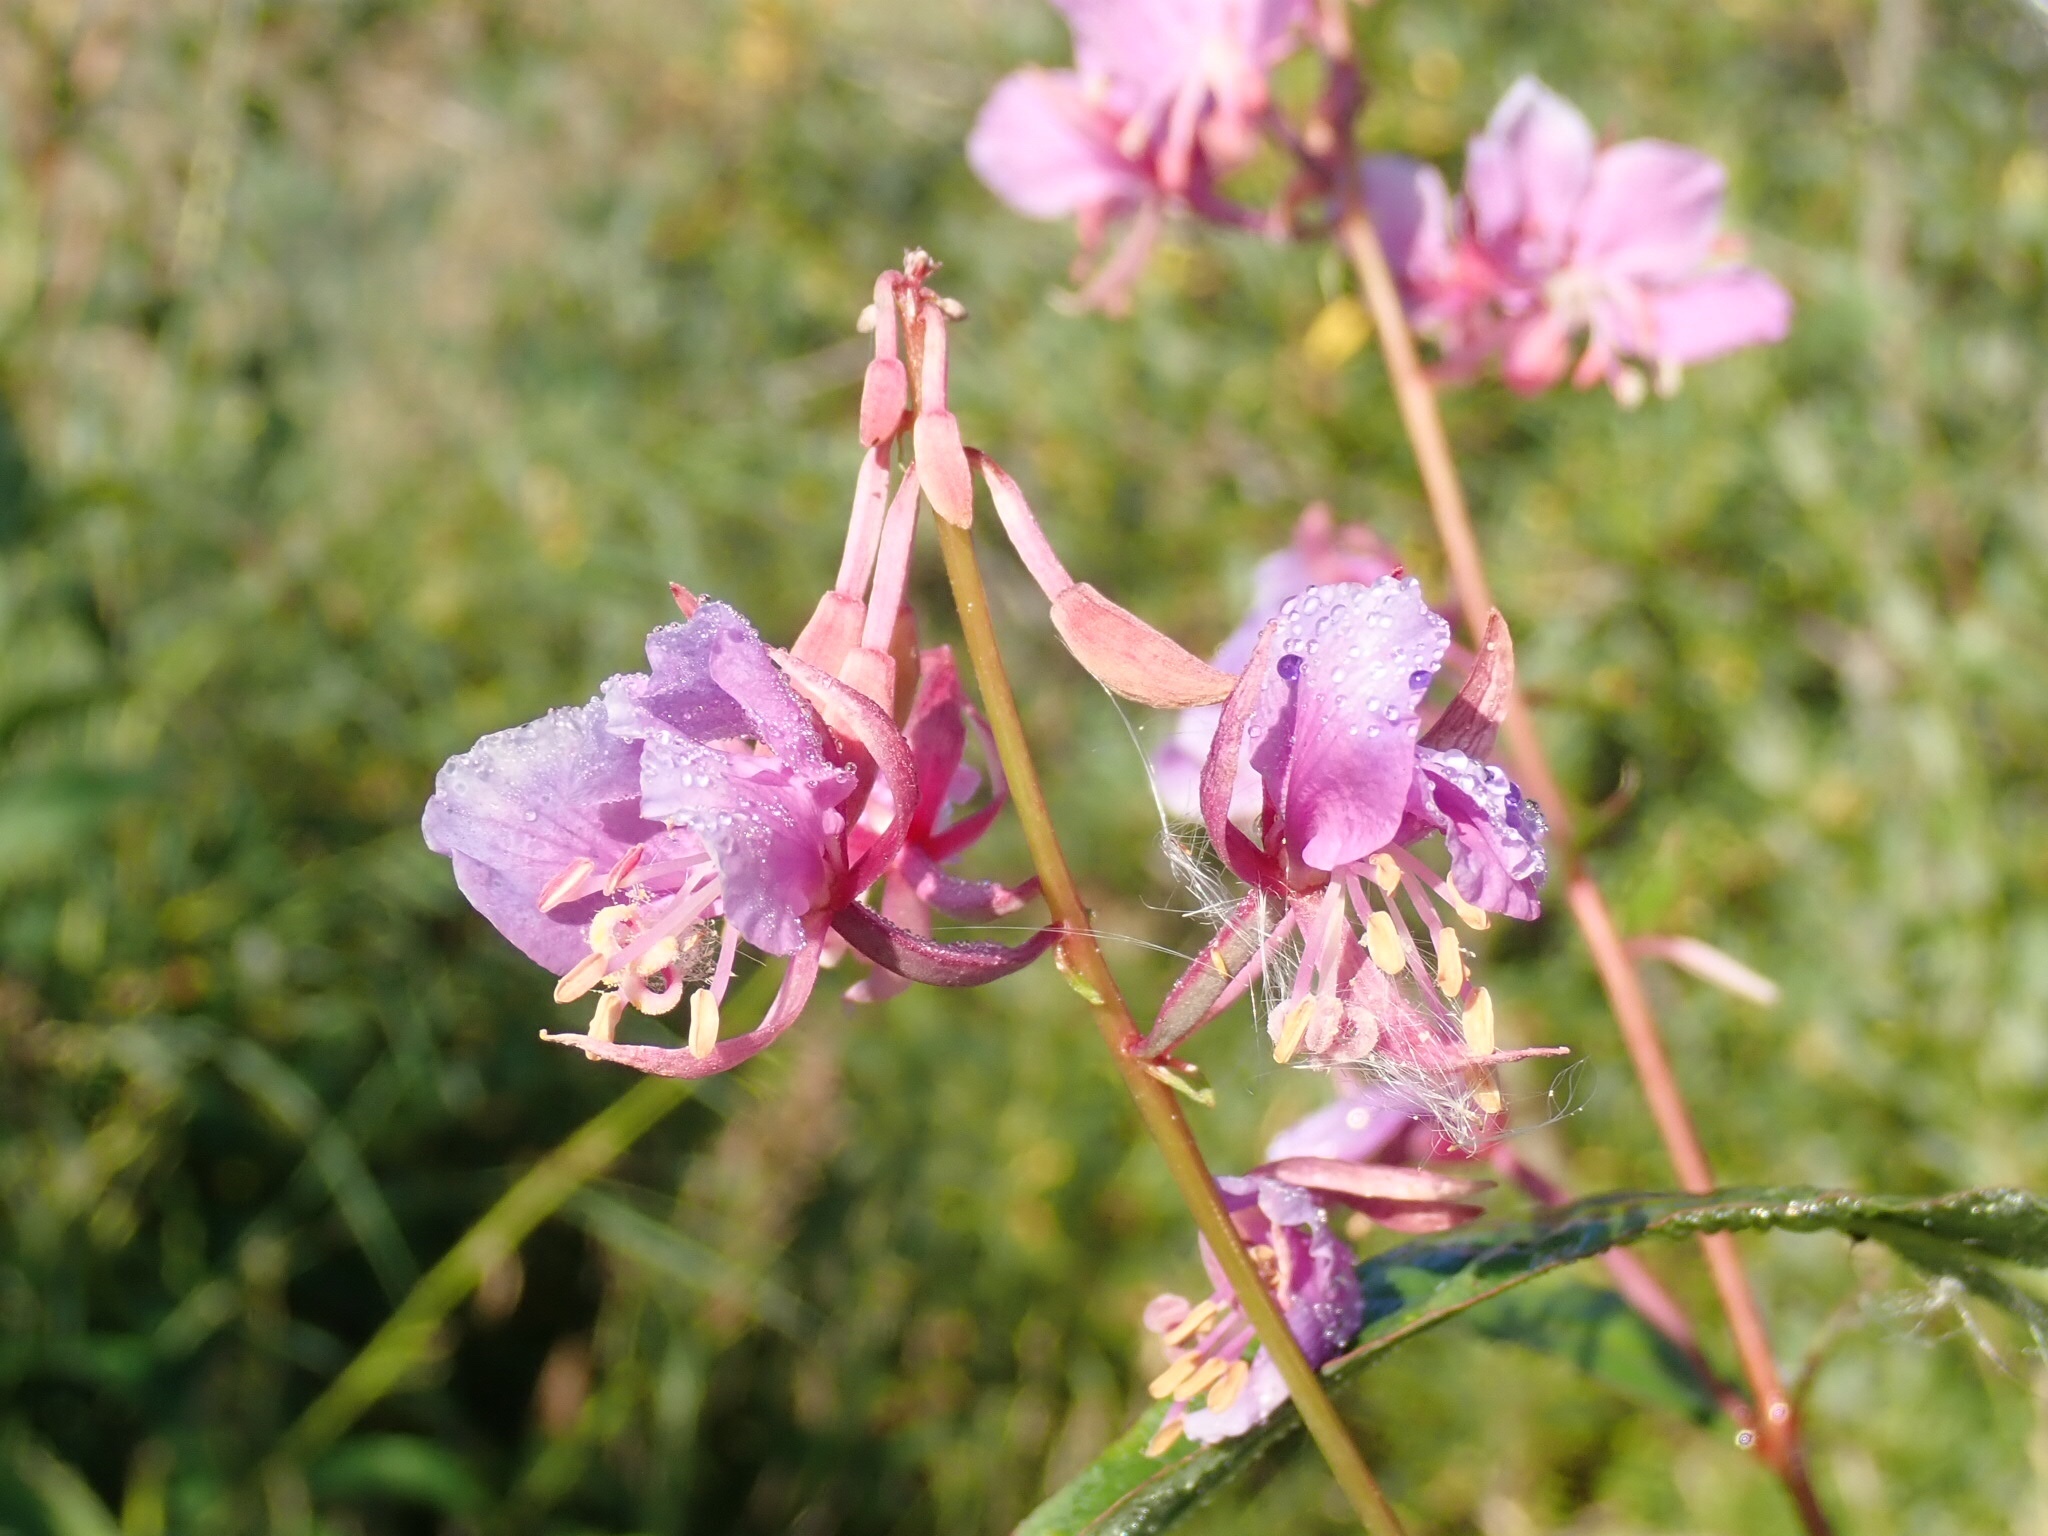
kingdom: Plantae
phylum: Tracheophyta
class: Magnoliopsida
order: Myrtales
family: Onagraceae
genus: Chamaenerion
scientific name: Chamaenerion angustifolium
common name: Fireweed
